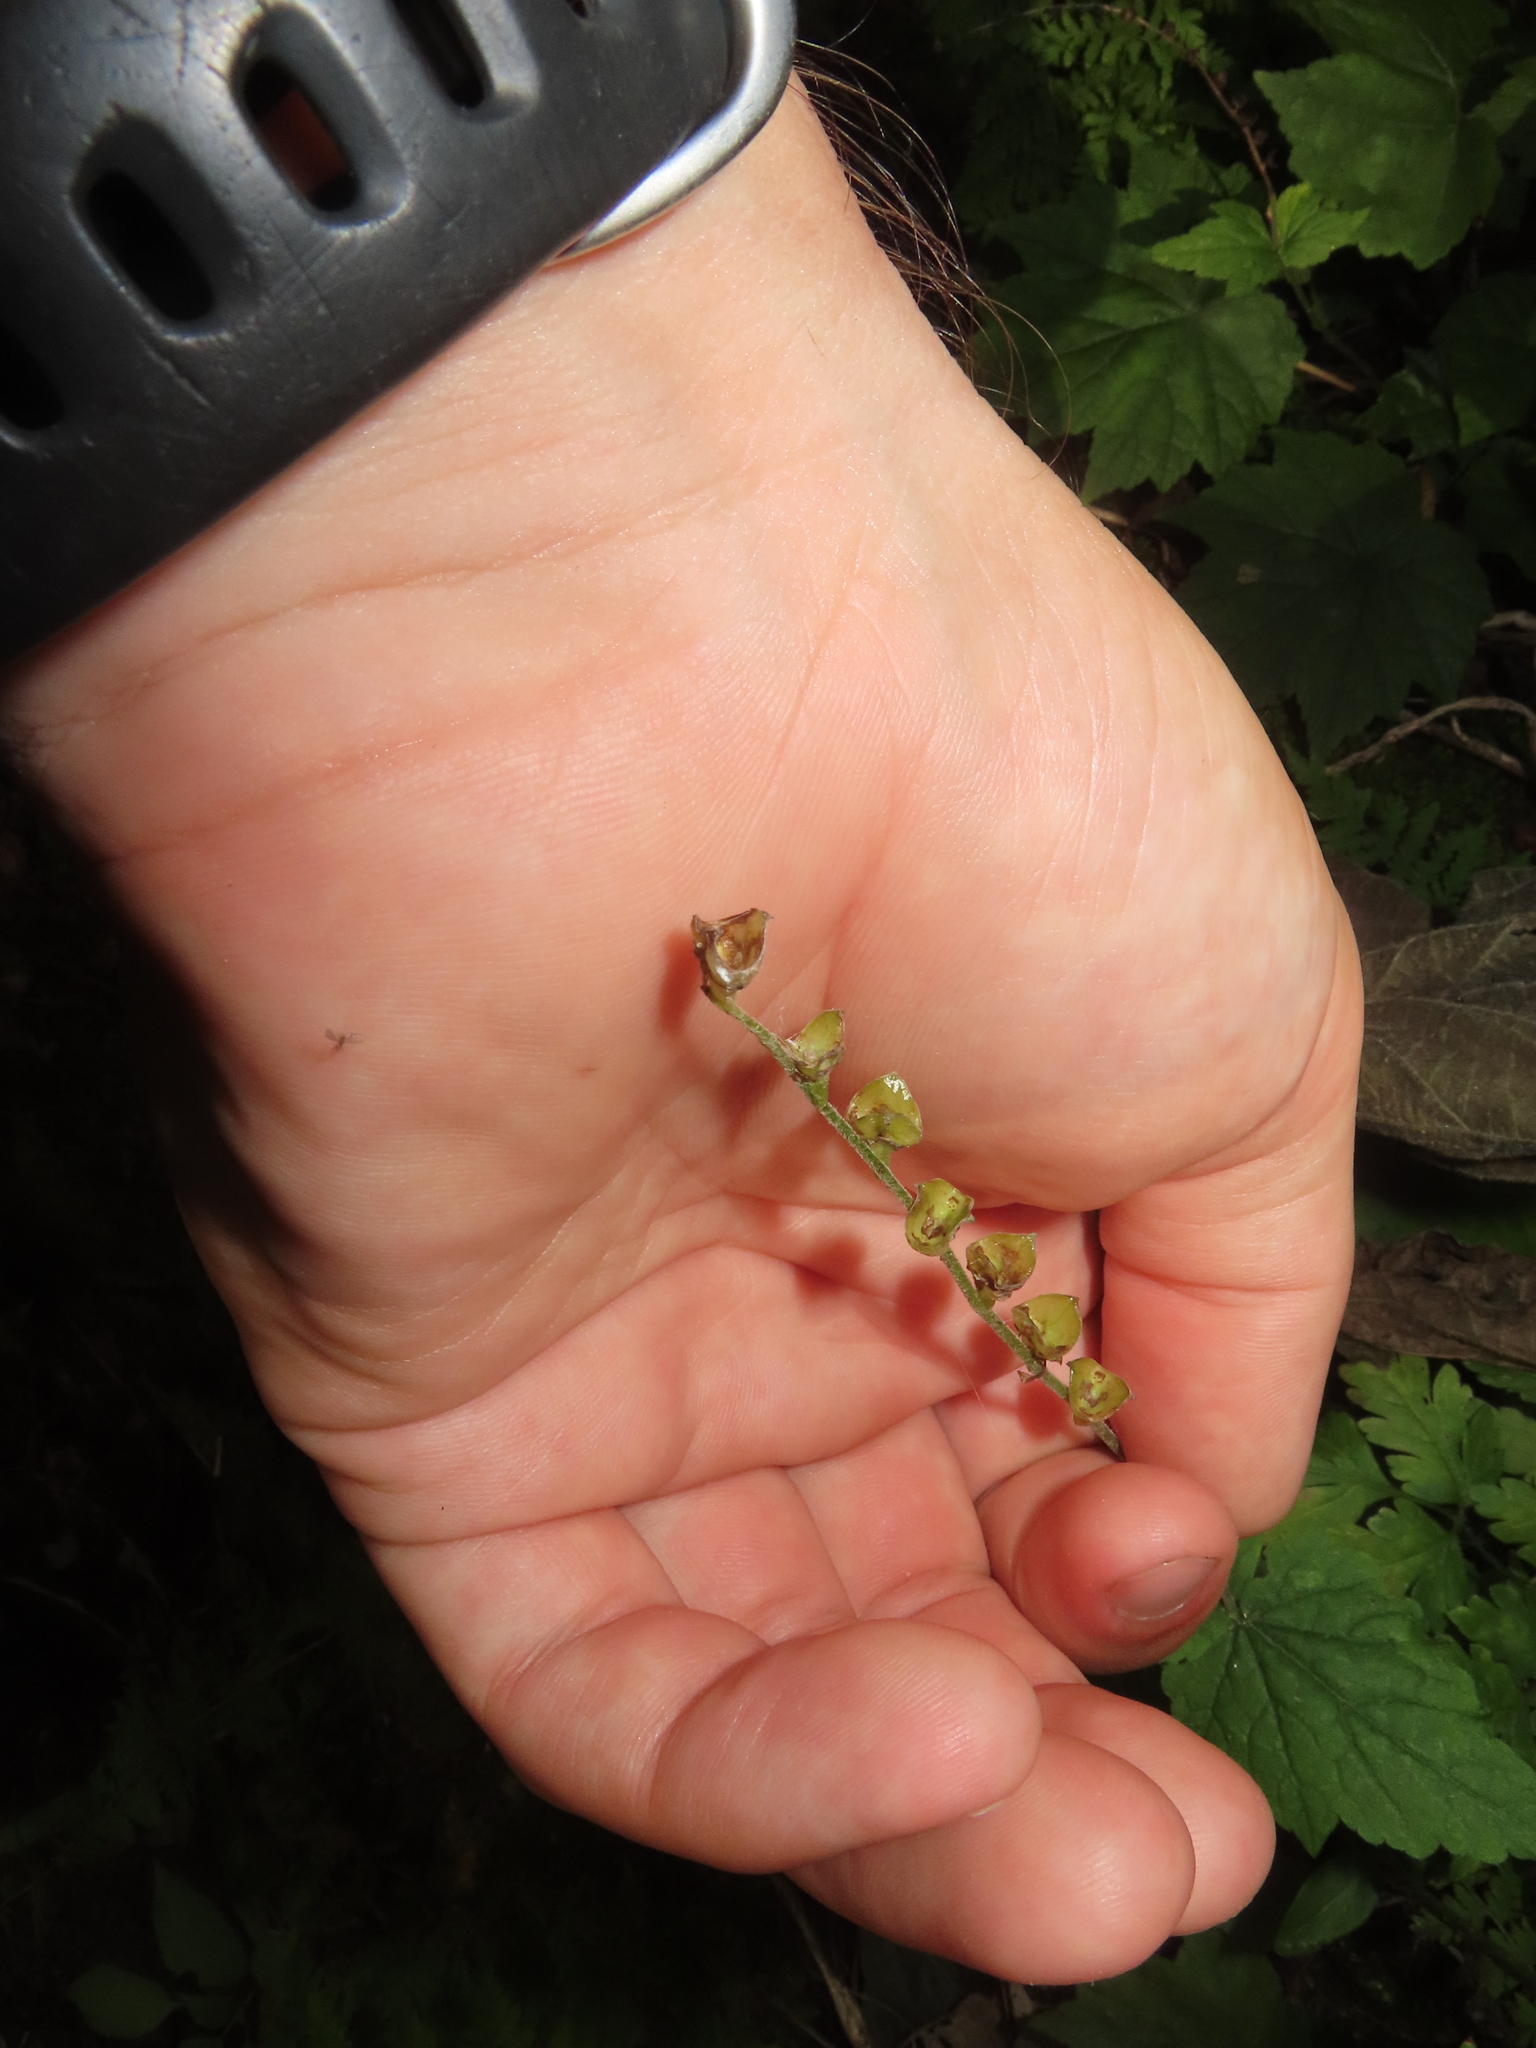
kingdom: Plantae
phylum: Tracheophyta
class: Magnoliopsida
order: Saxifragales
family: Saxifragaceae
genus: Mitella
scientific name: Mitella diphylla
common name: Coolwort
